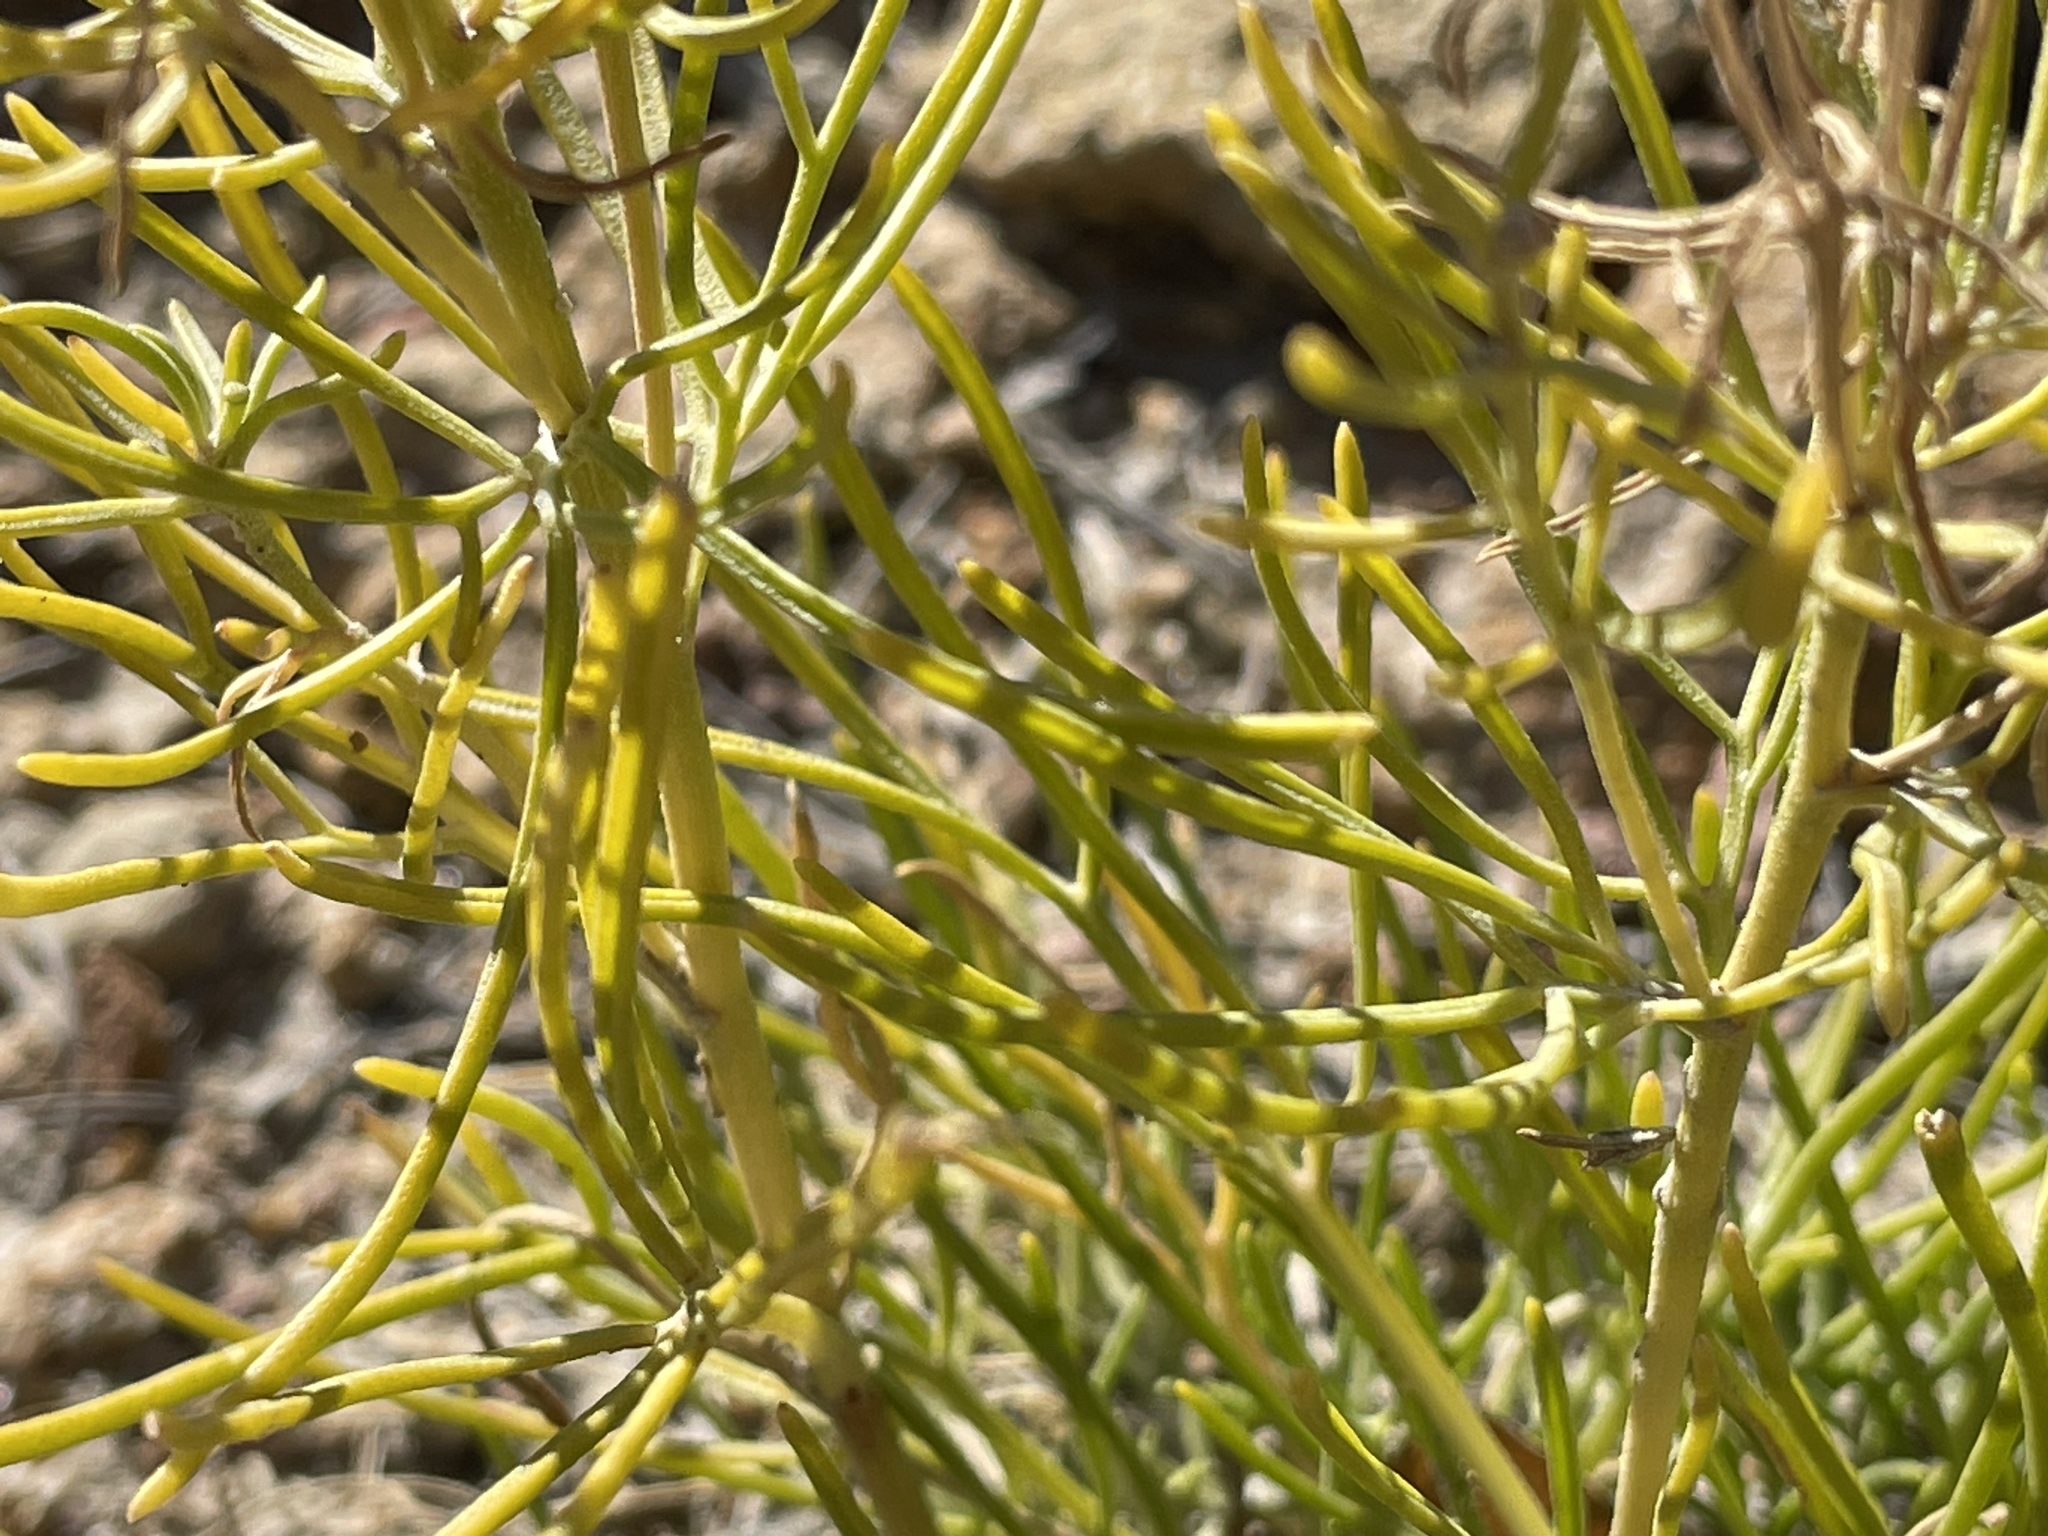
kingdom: Plantae
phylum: Tracheophyta
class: Magnoliopsida
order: Asterales
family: Asteraceae
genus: Hymenoxys
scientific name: Hymenoxys richardsonii
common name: Pingue rubberweed
